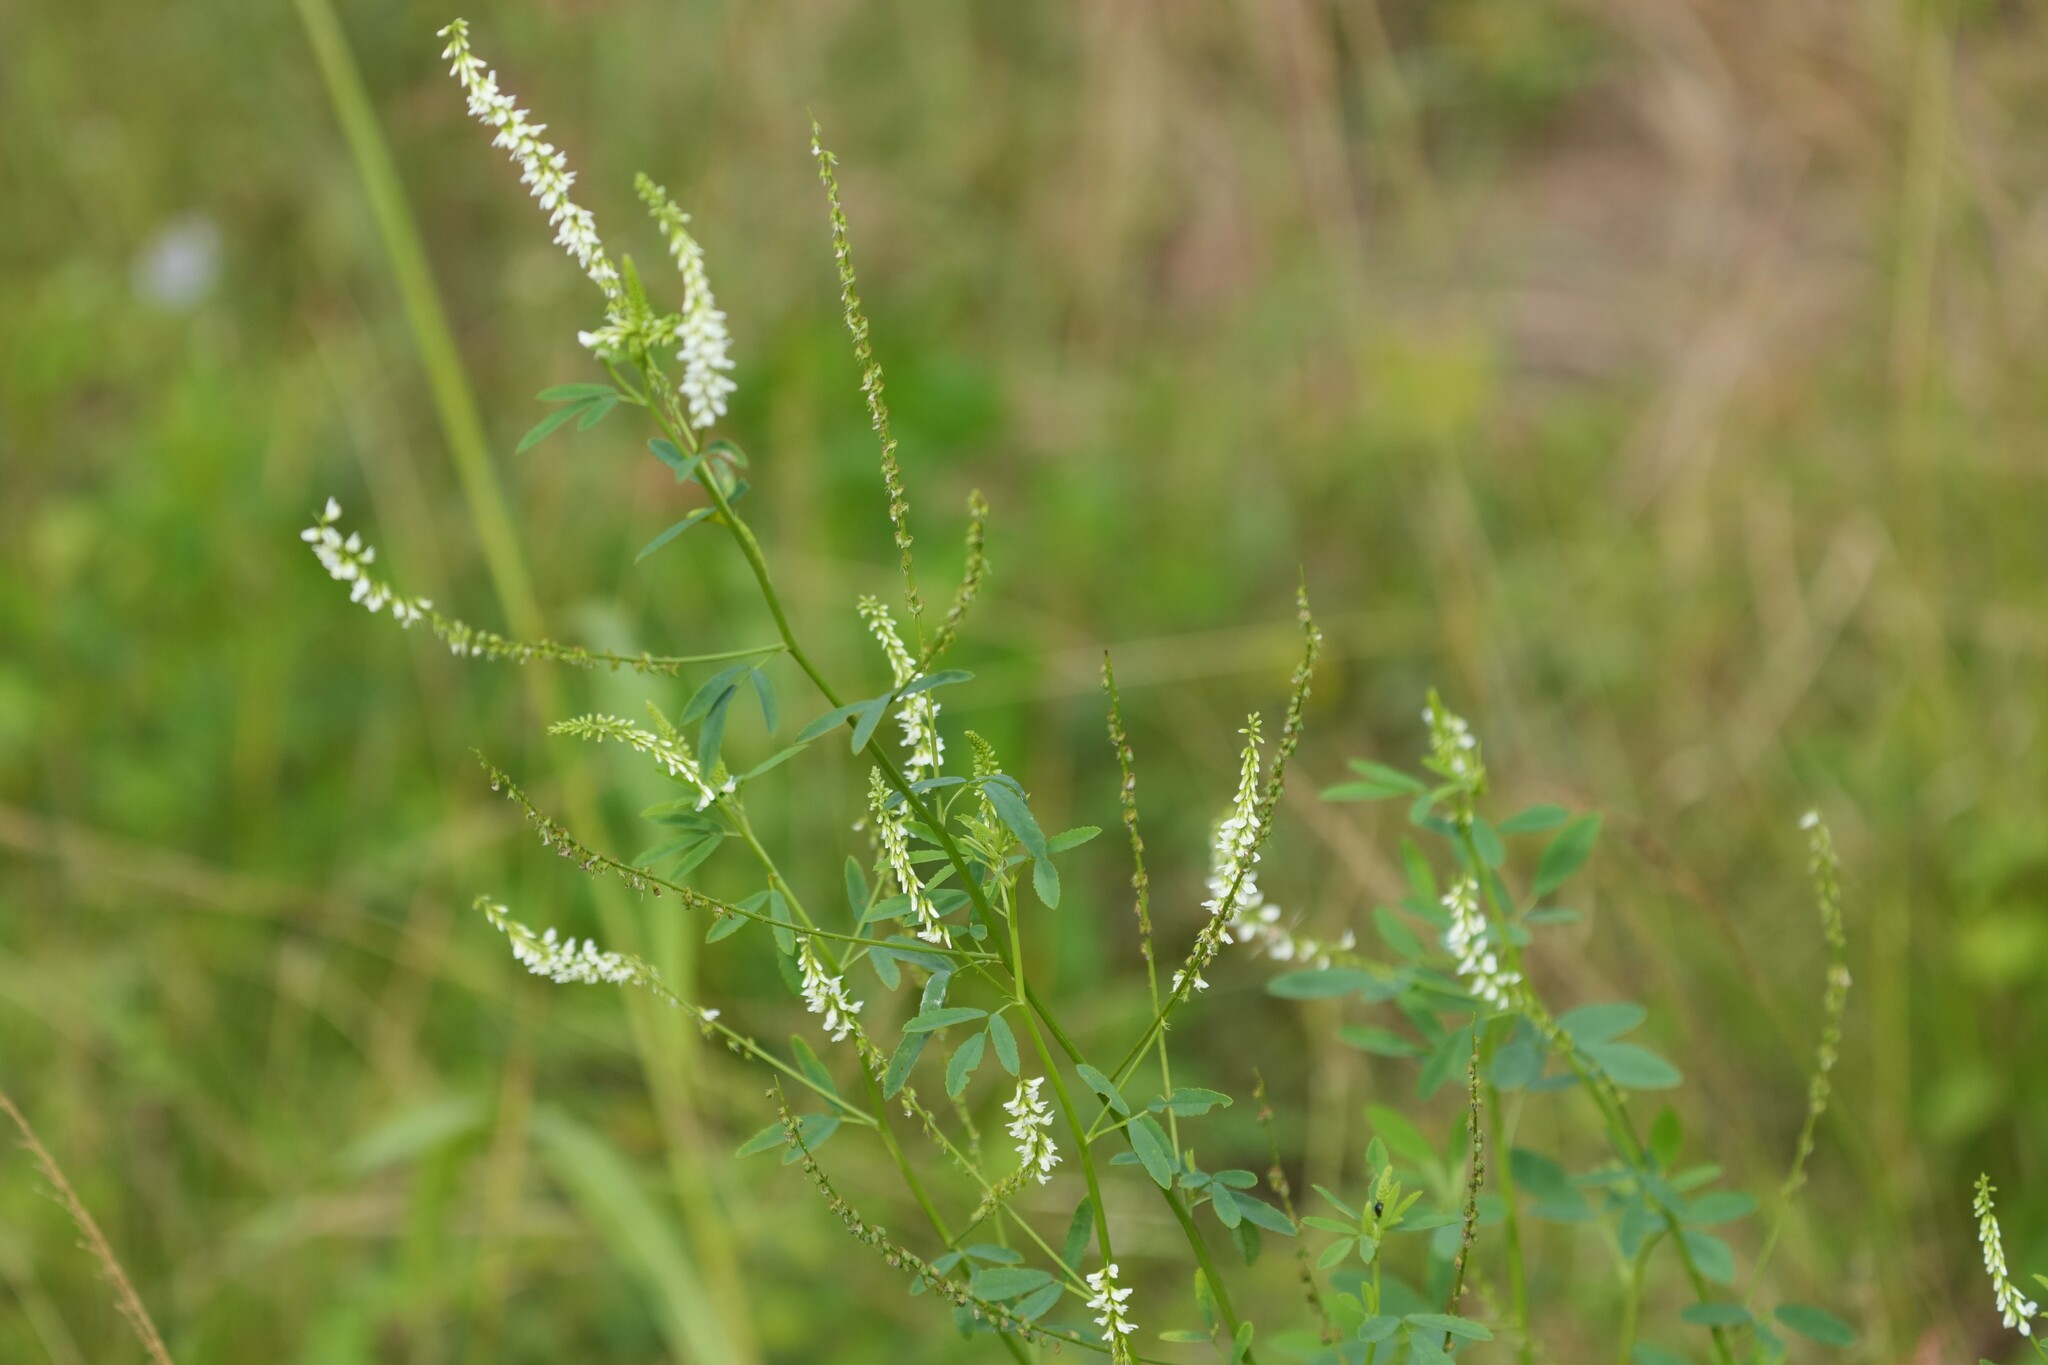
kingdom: Plantae
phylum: Tracheophyta
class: Magnoliopsida
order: Fabales
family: Fabaceae
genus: Melilotus
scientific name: Melilotus albus
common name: White melilot
